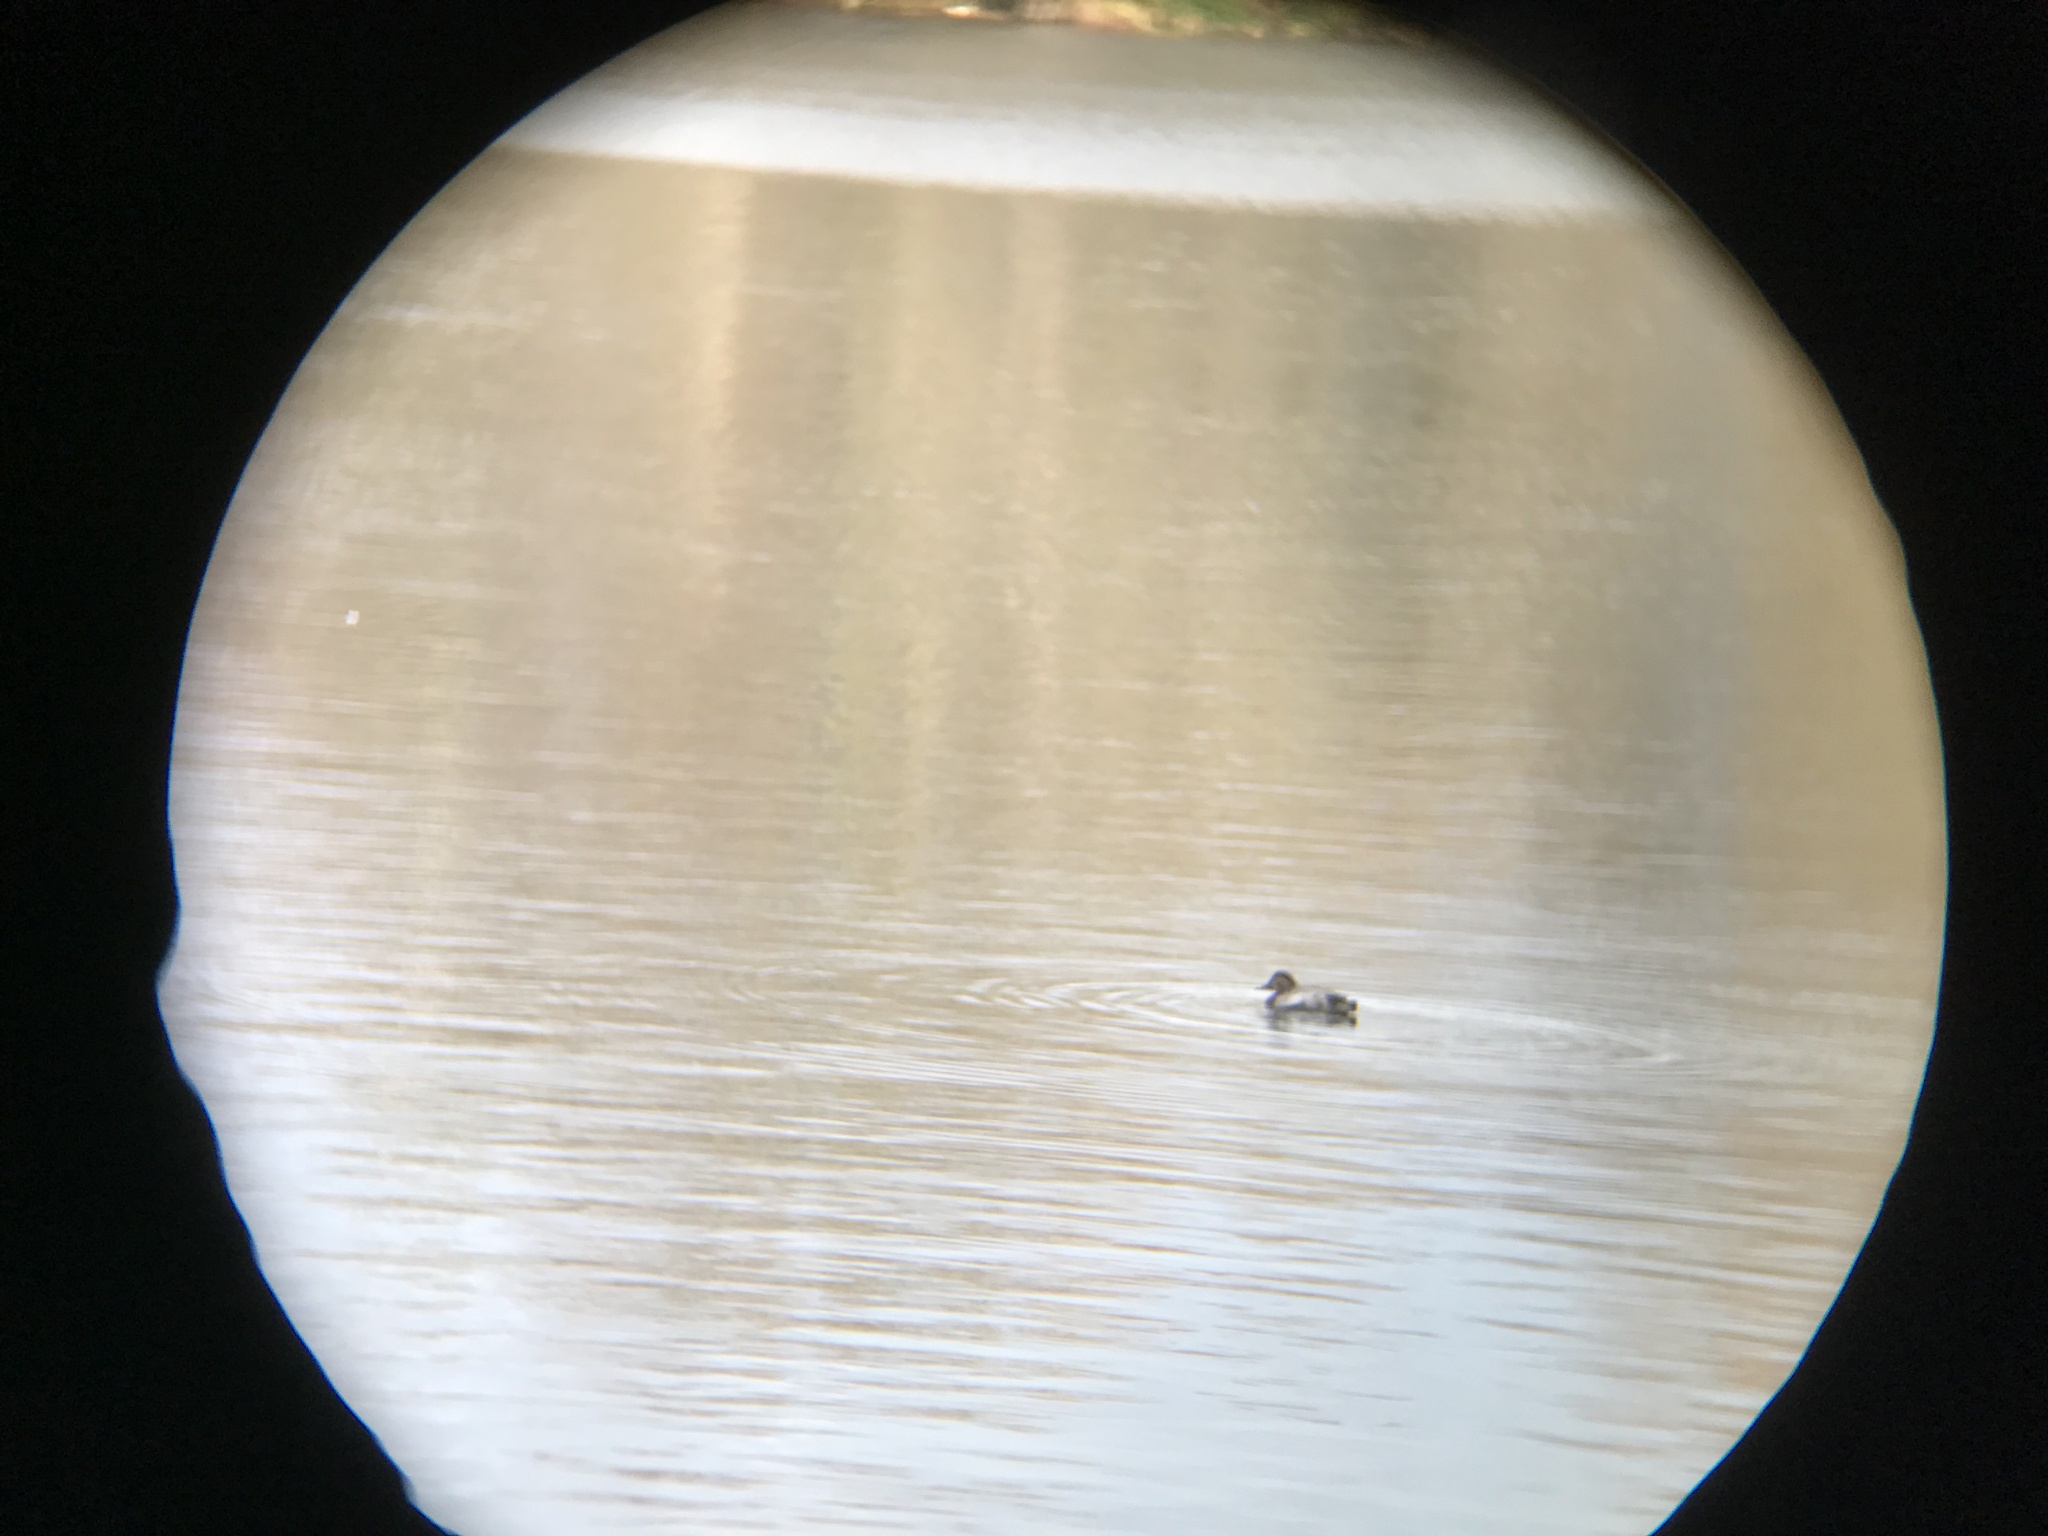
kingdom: Animalia
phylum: Chordata
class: Aves
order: Anseriformes
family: Anatidae
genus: Aythya
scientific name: Aythya ferina
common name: Common pochard
